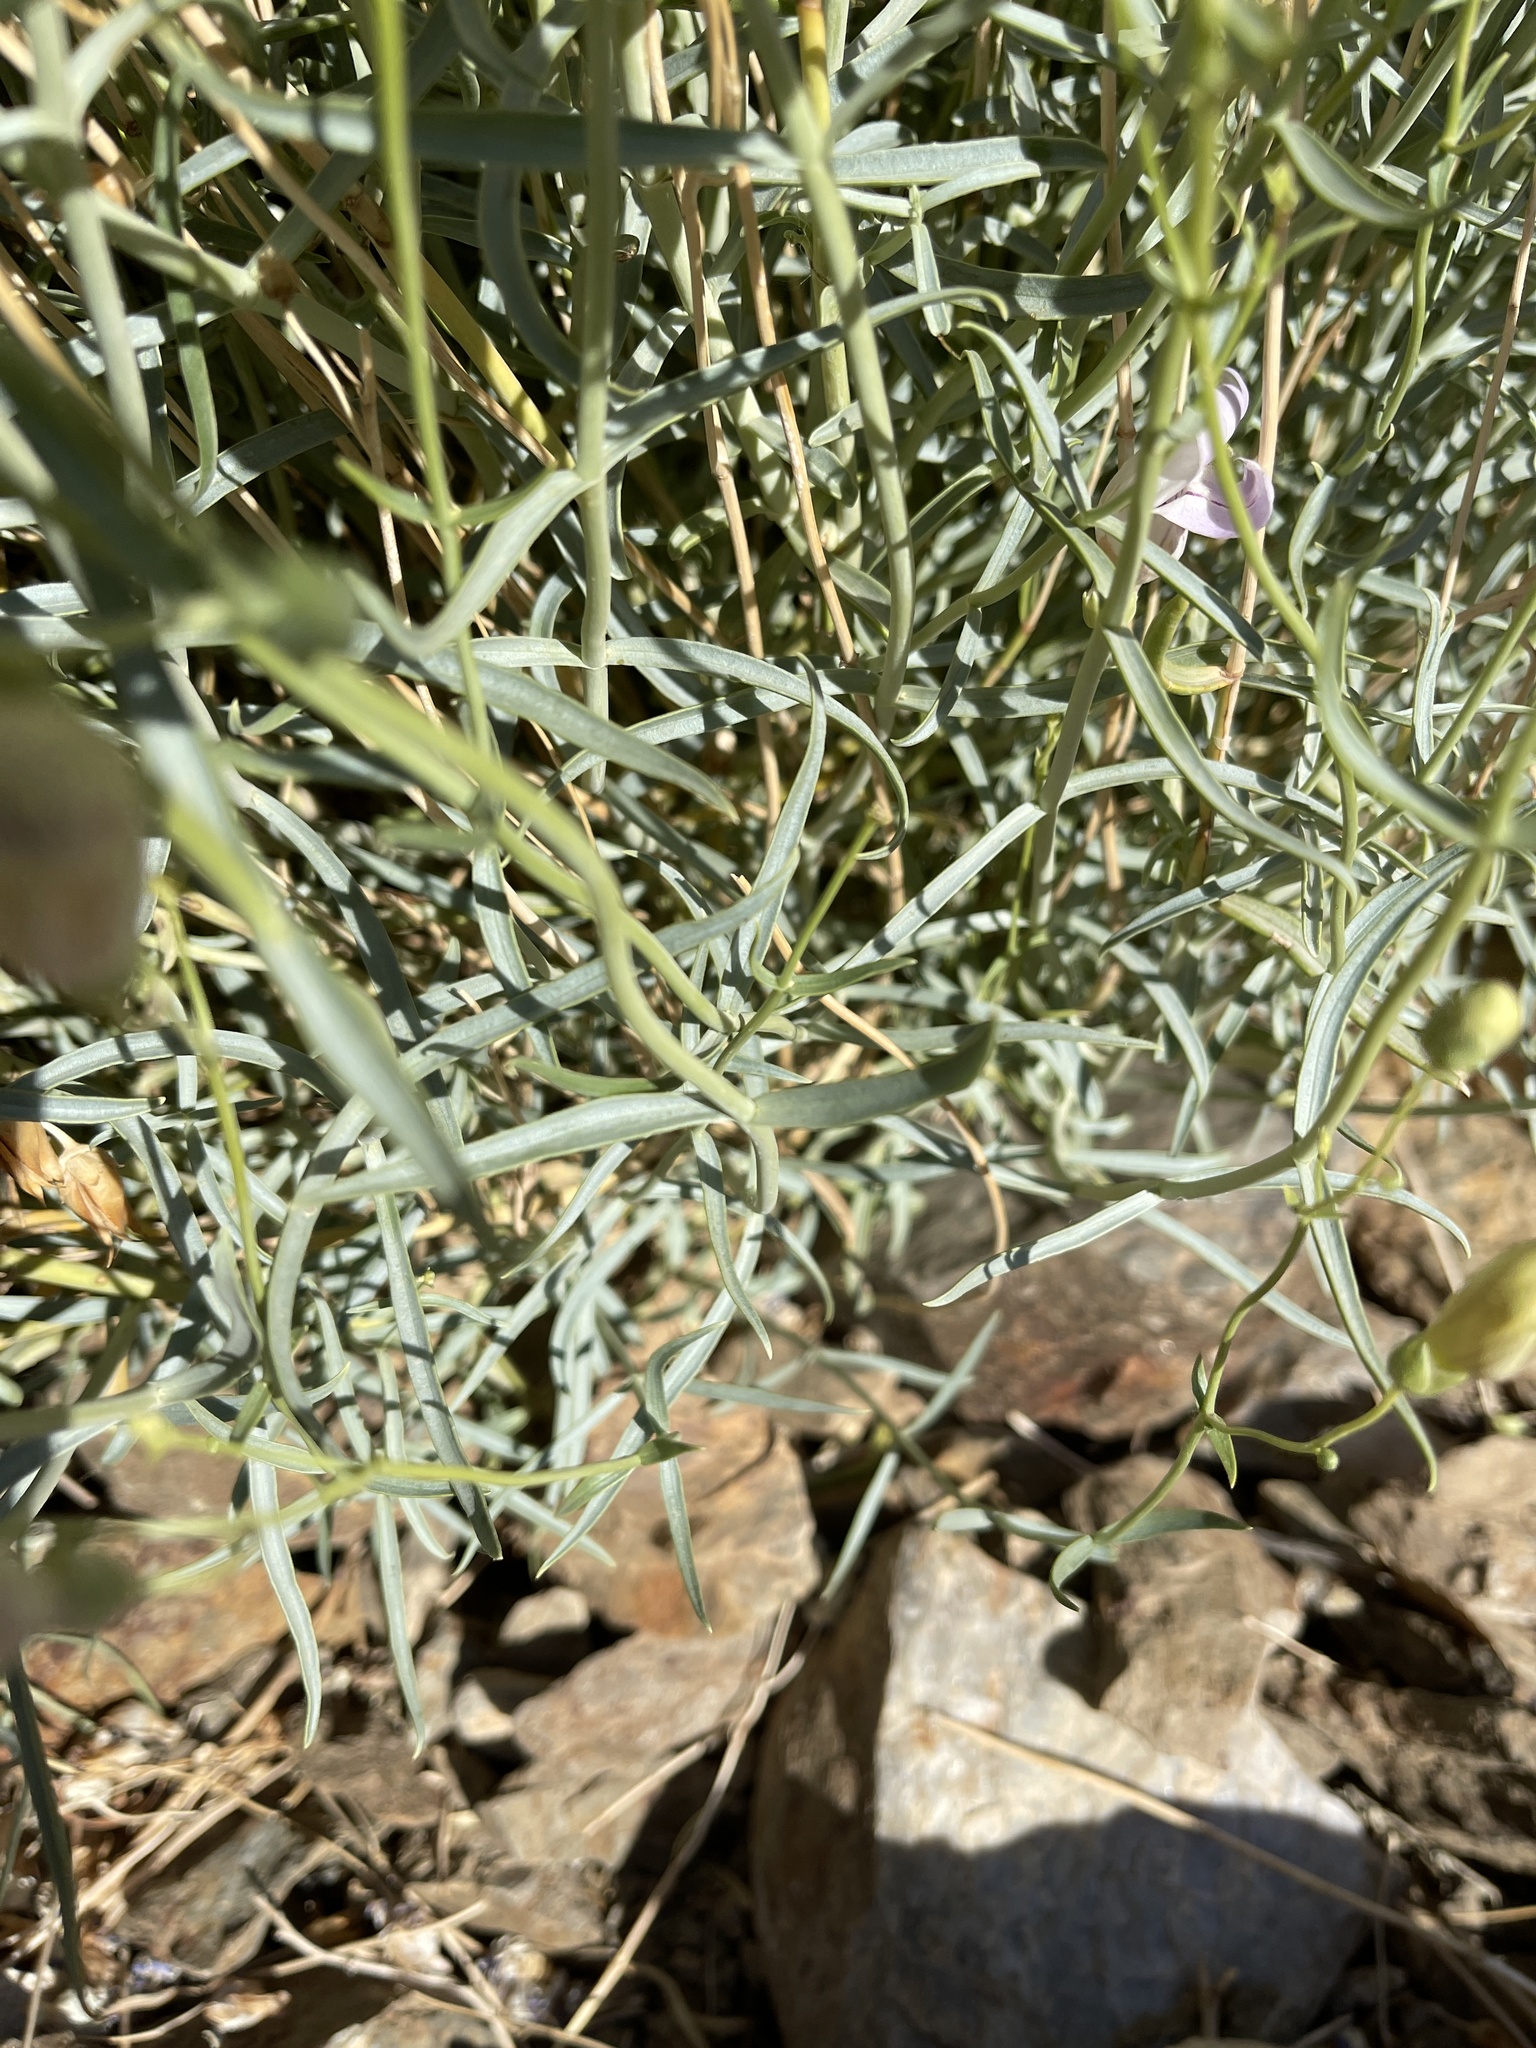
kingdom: Plantae
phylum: Tracheophyta
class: Magnoliopsida
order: Lamiales
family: Plantaginaceae
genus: Penstemon
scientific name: Penstemon fruticiformis
